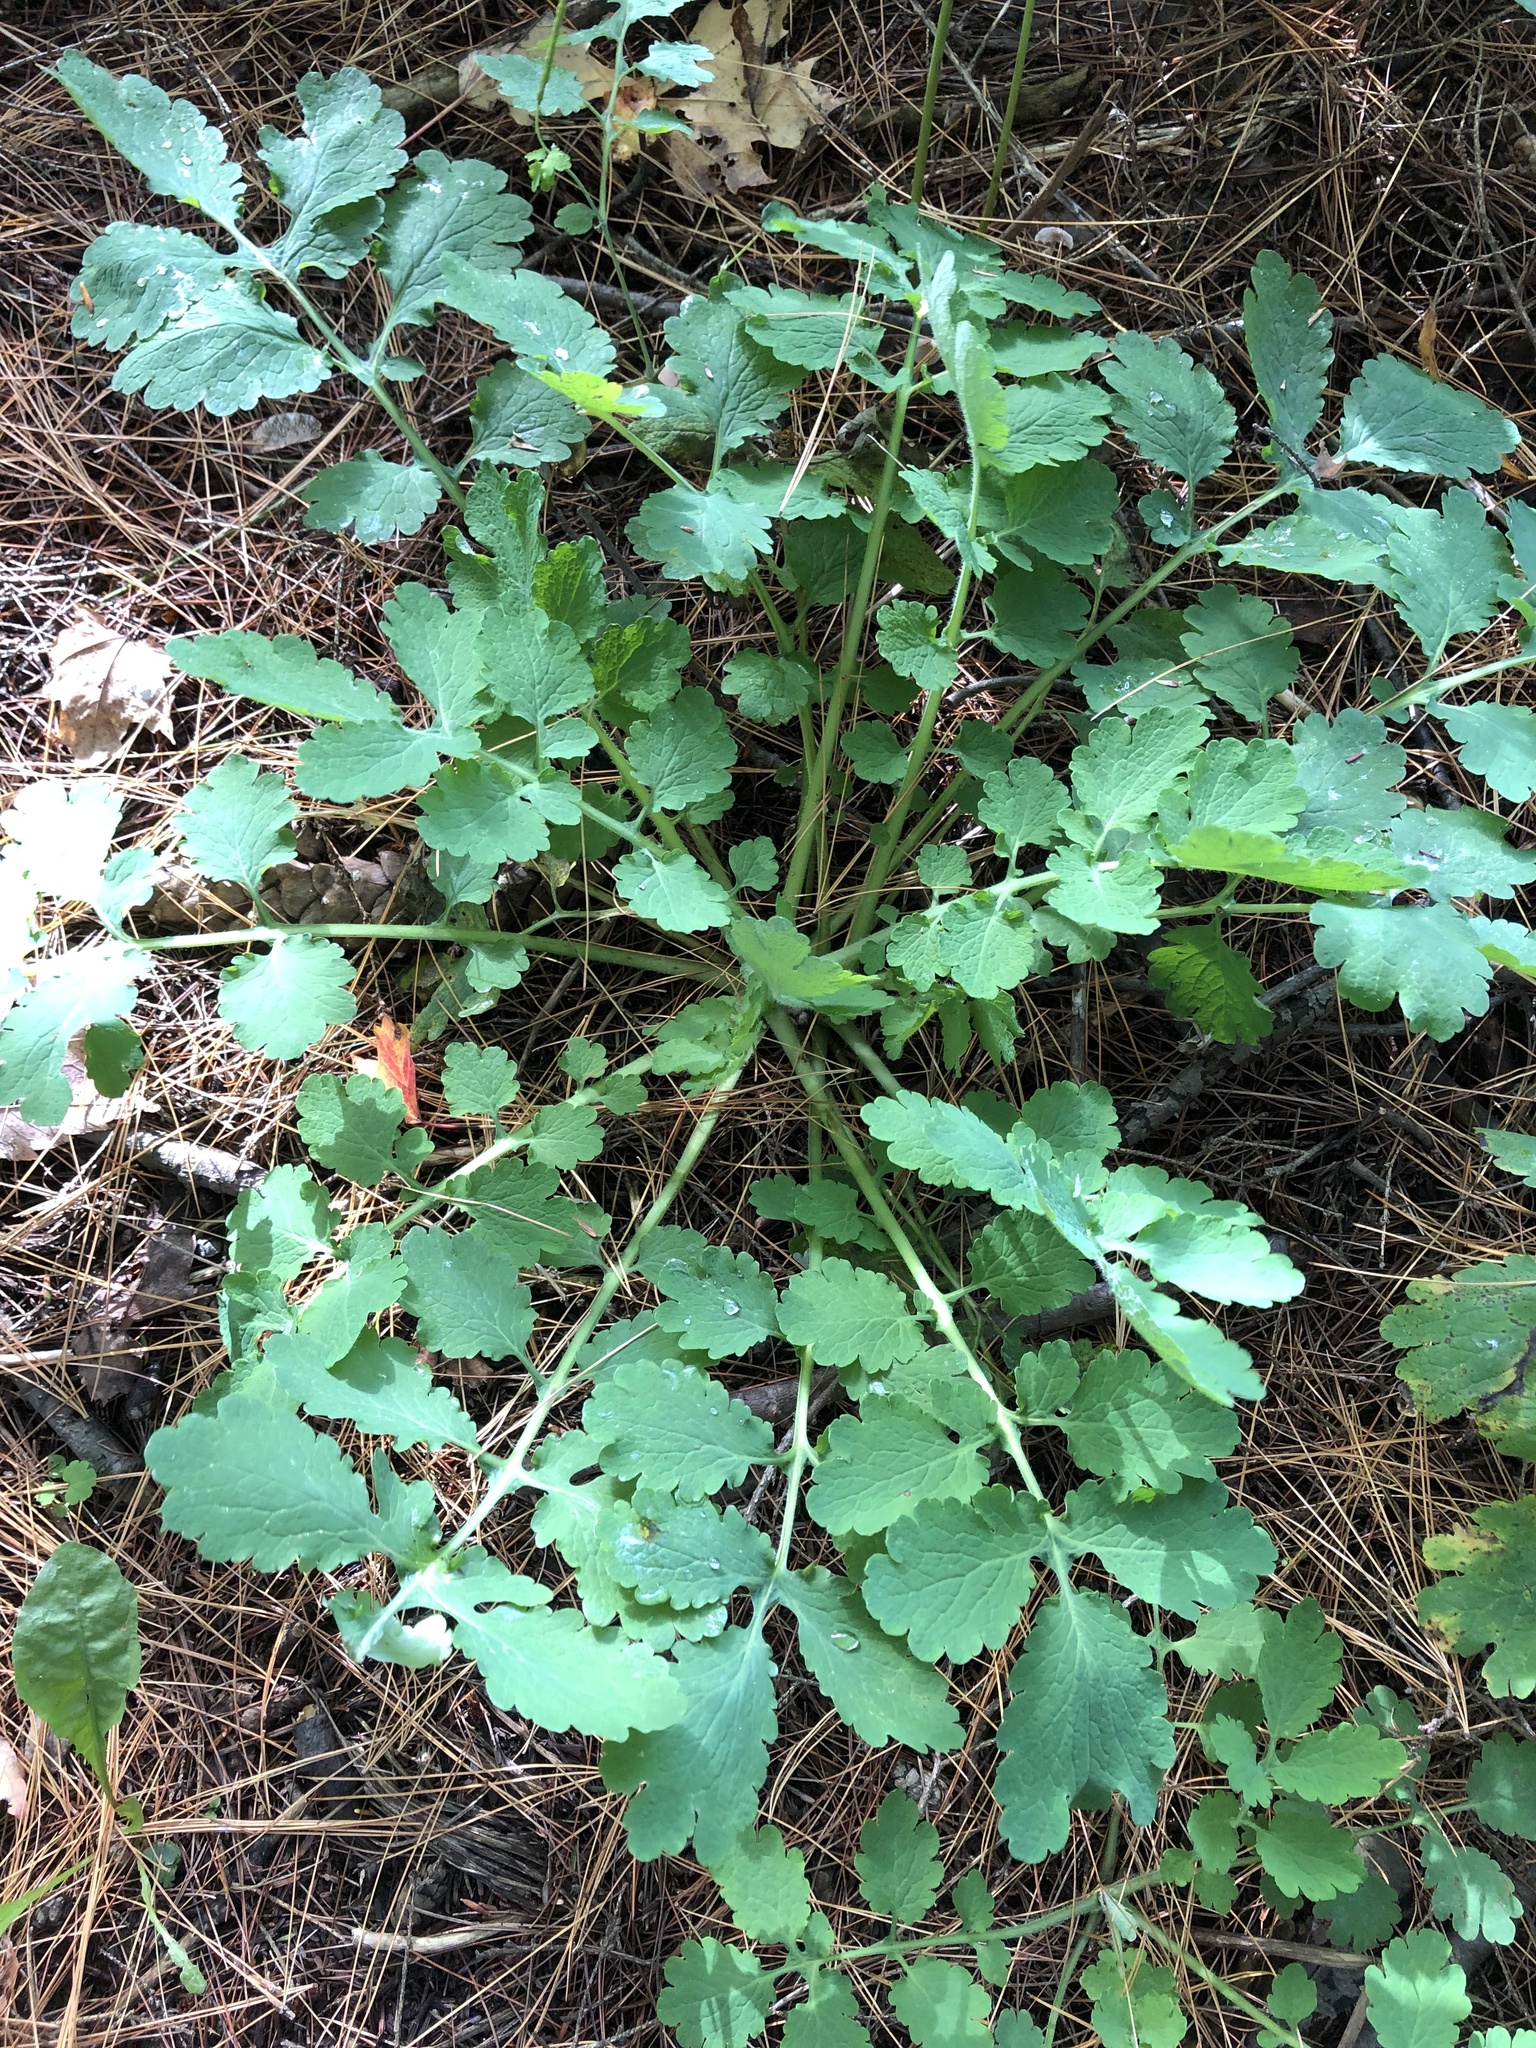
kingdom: Plantae
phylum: Tracheophyta
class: Magnoliopsida
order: Ranunculales
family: Papaveraceae
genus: Chelidonium
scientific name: Chelidonium majus
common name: Greater celandine
